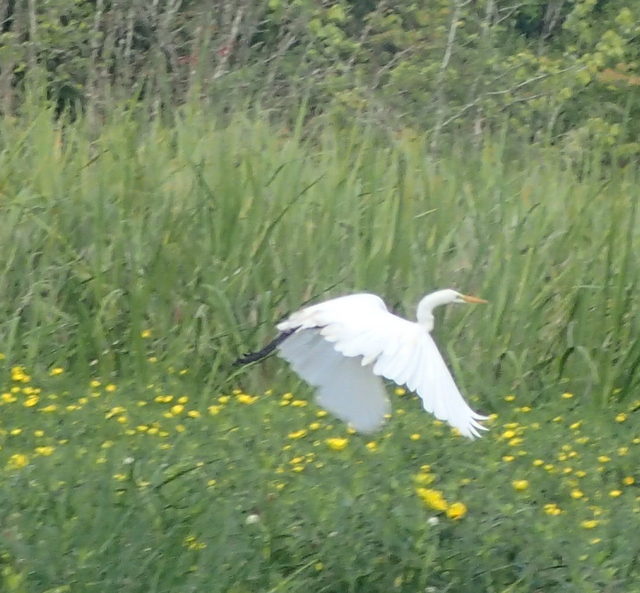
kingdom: Animalia
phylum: Chordata
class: Aves
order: Pelecaniformes
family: Ardeidae
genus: Ardea
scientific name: Ardea alba
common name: Great egret
